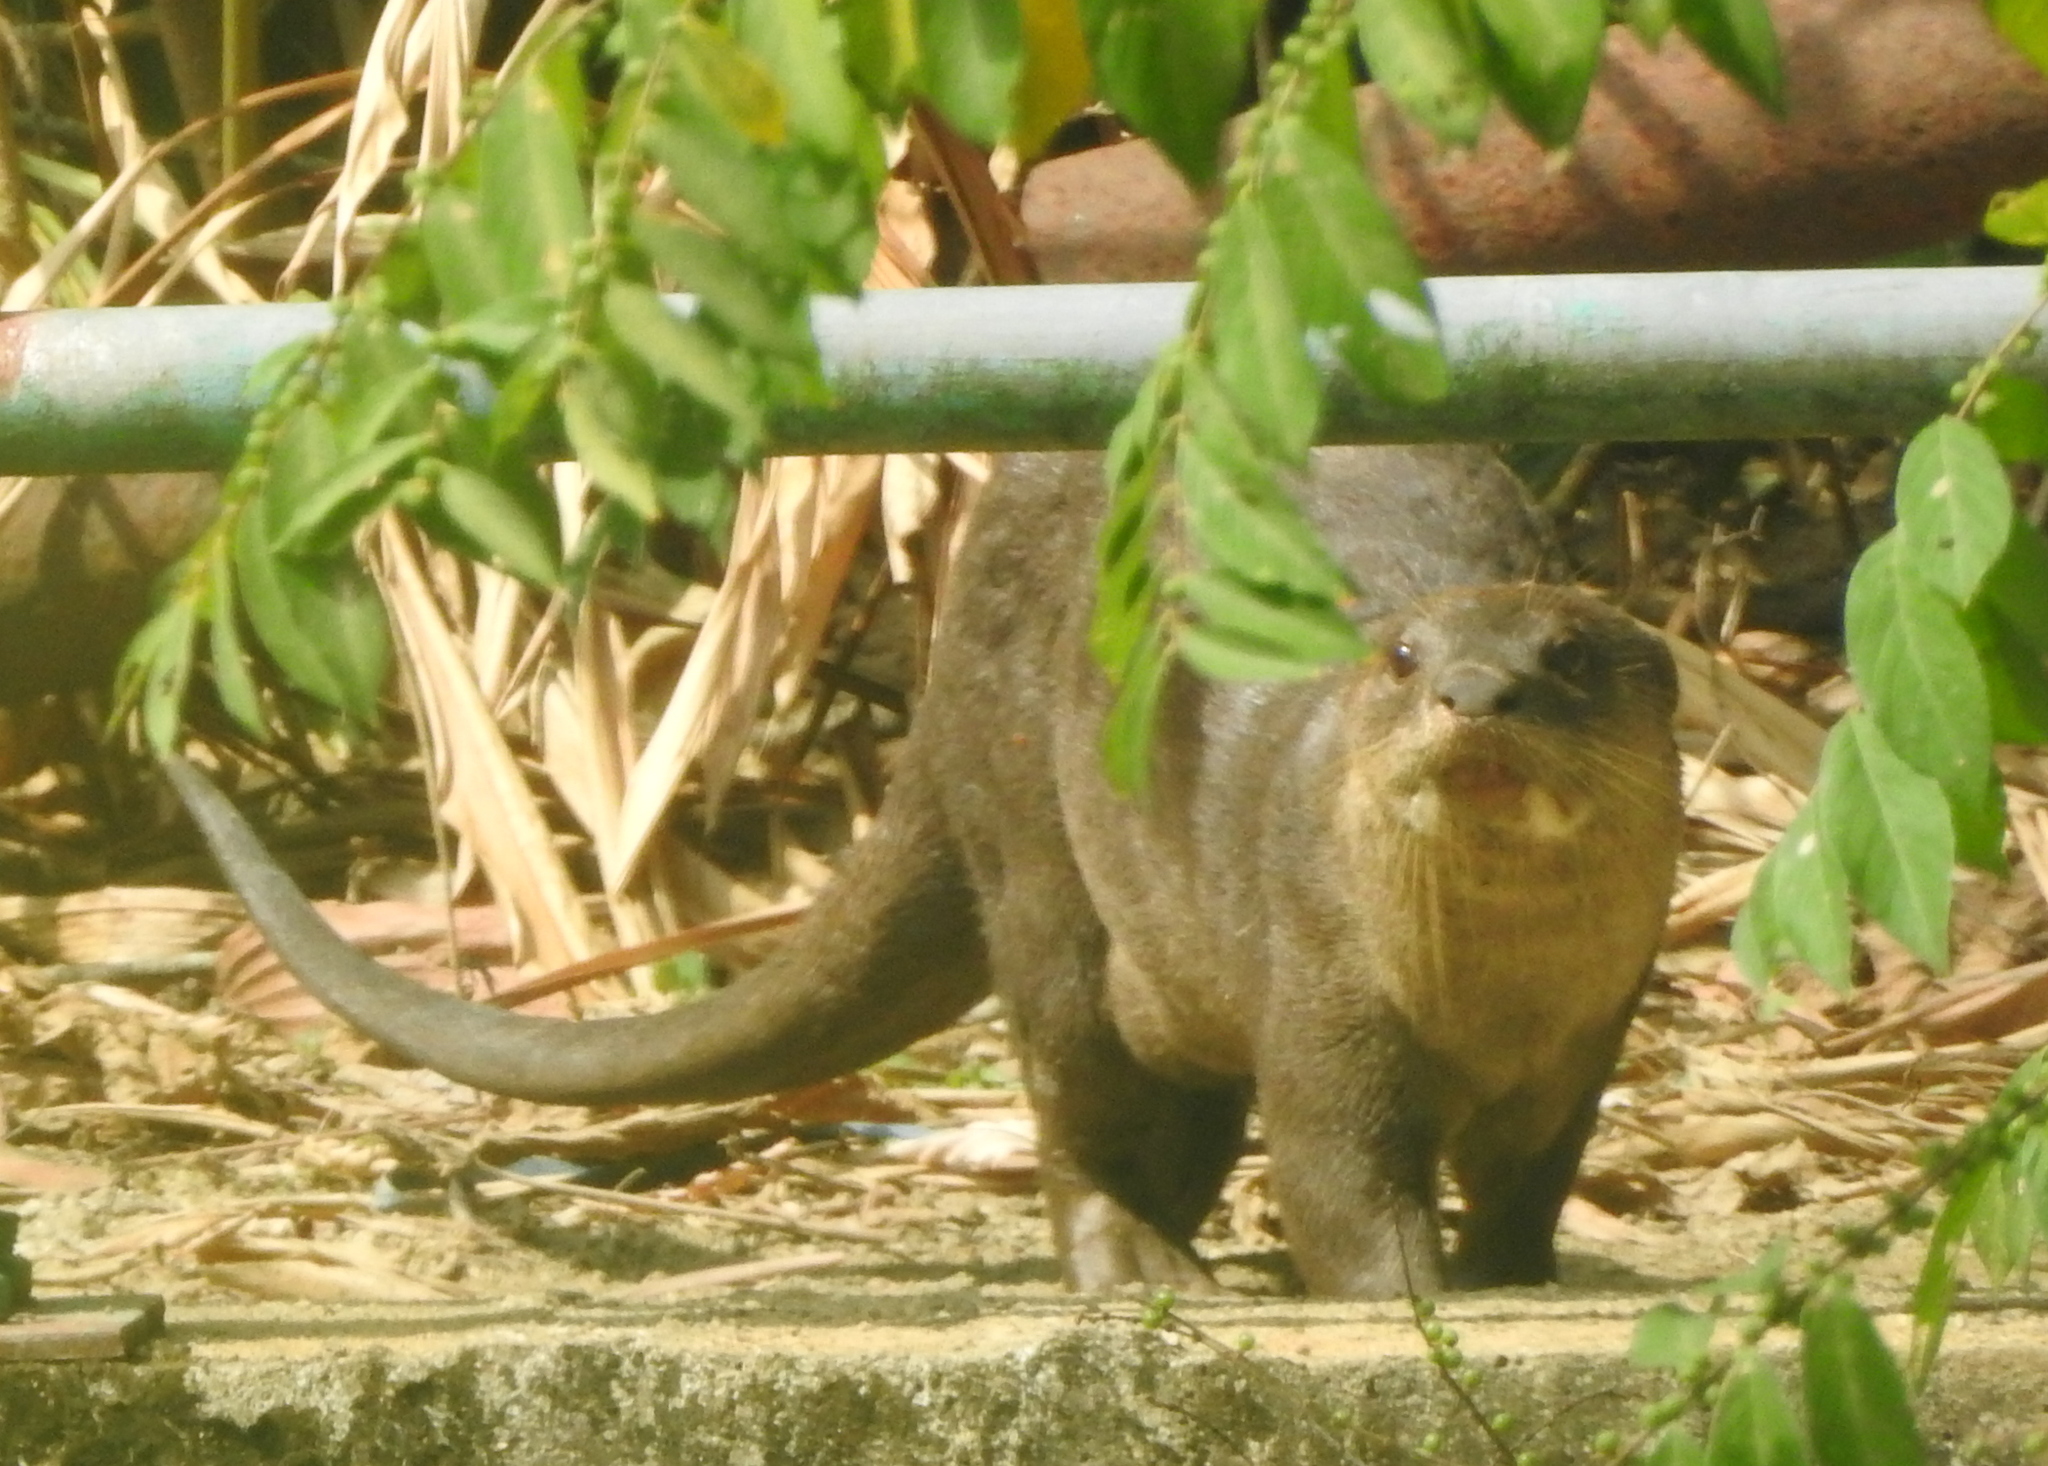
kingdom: Animalia
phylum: Chordata
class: Mammalia
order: Carnivora
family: Mustelidae
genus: Lutrogale
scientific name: Lutrogale perspicillata
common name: Smooth-coated otter
